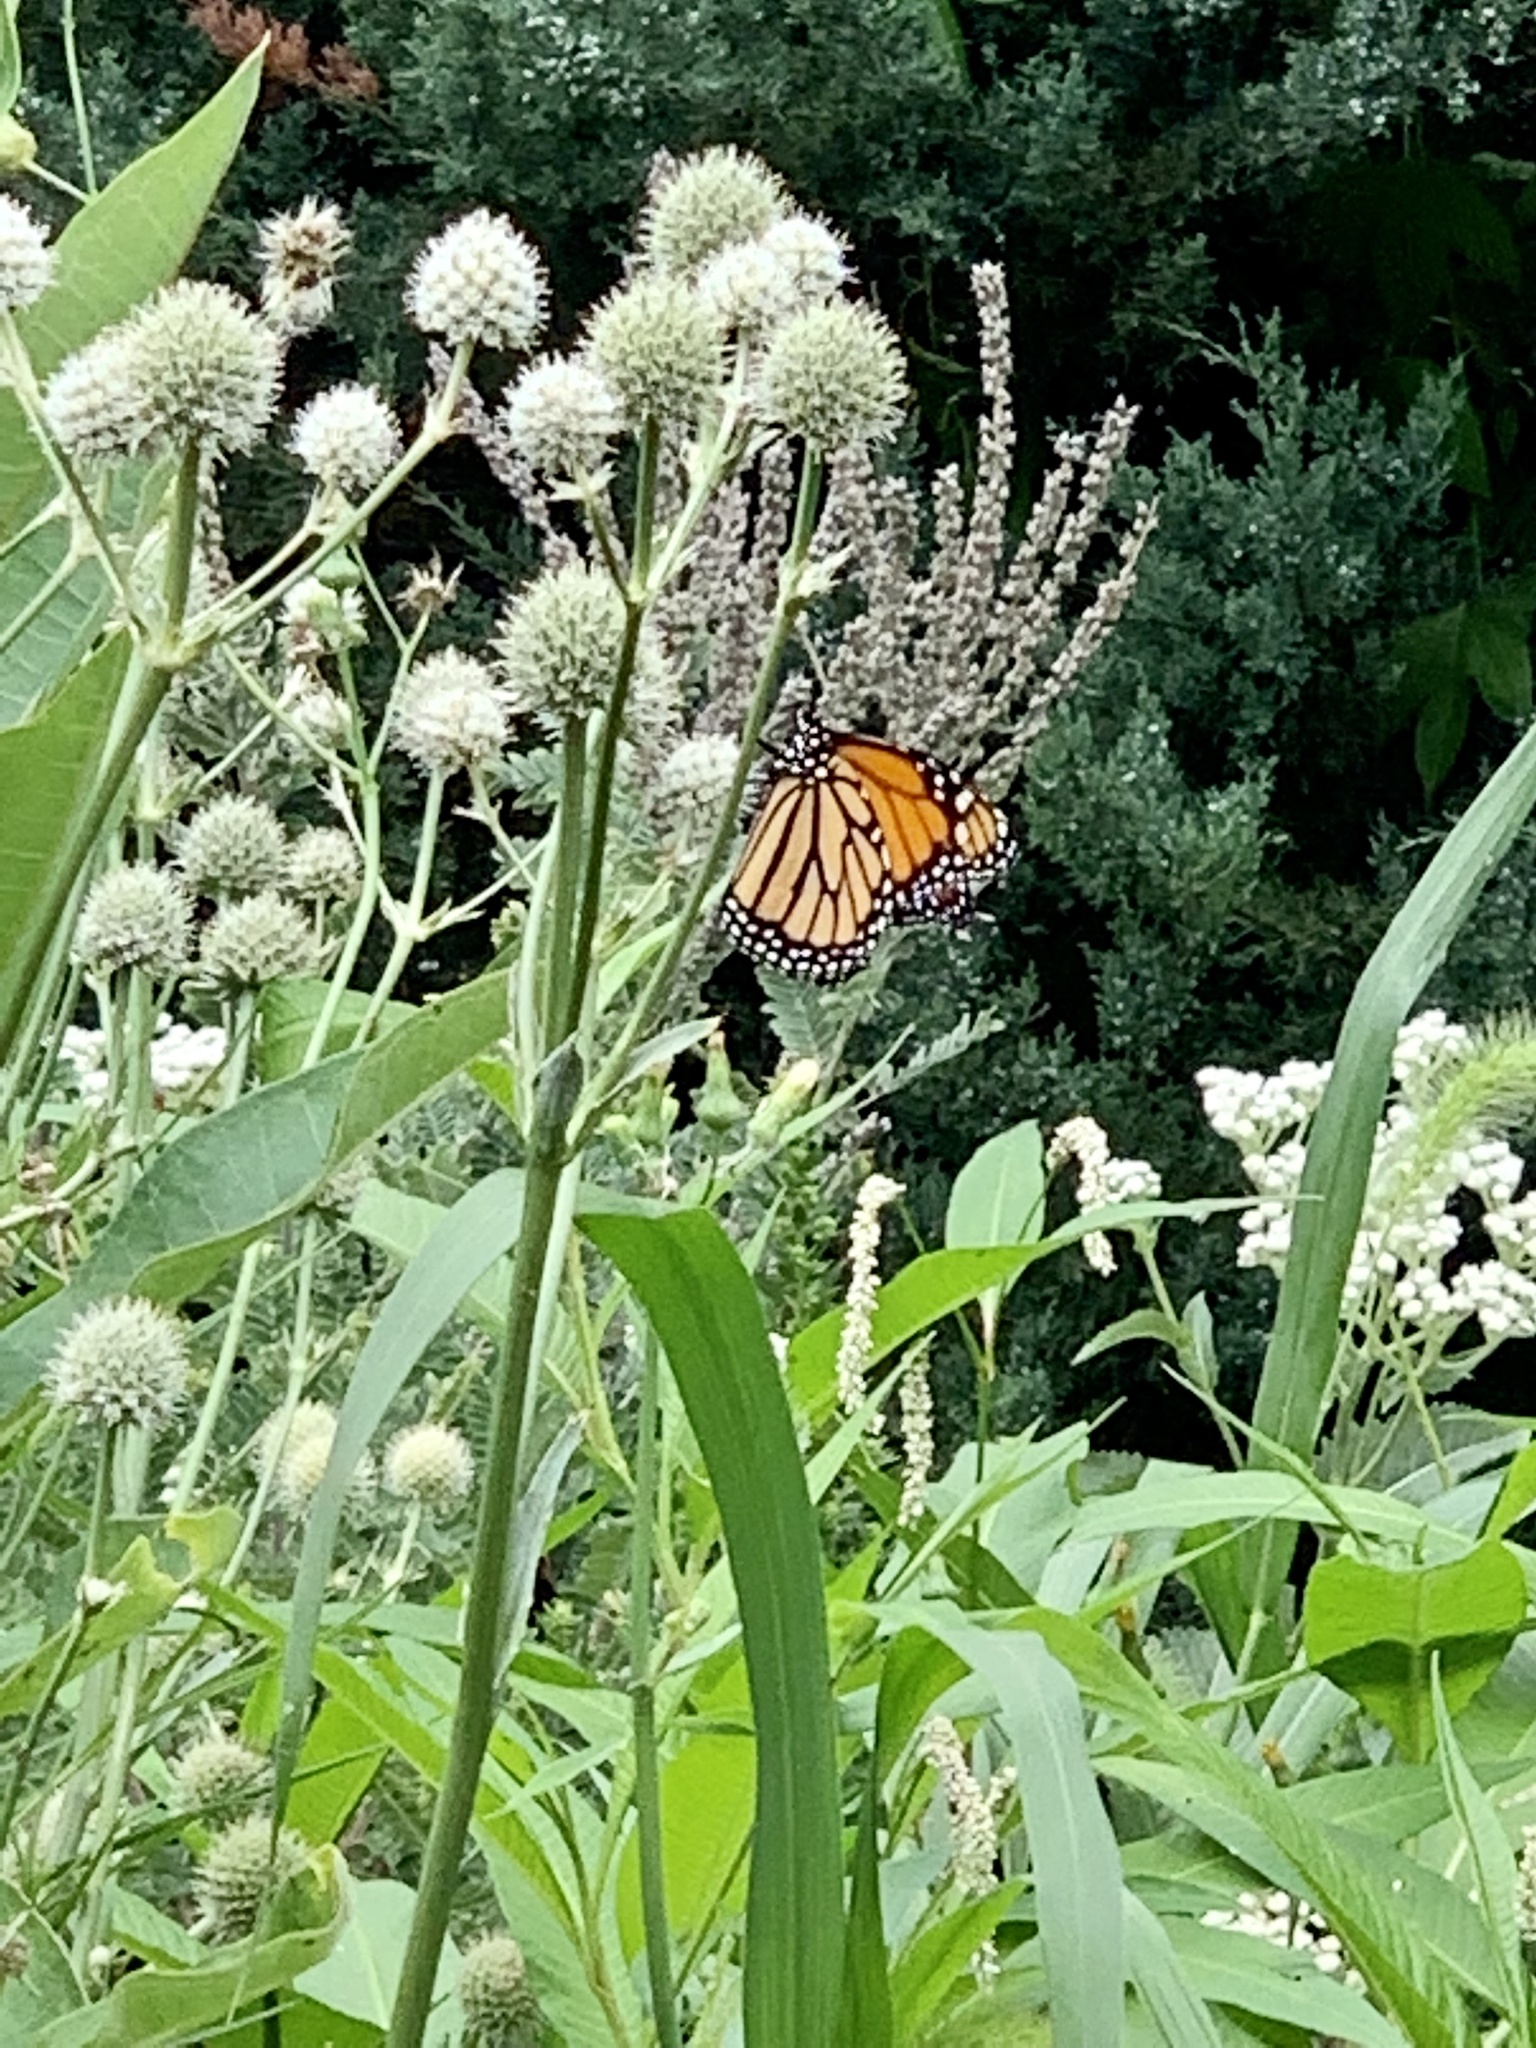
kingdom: Animalia
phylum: Arthropoda
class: Insecta
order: Lepidoptera
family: Nymphalidae
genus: Danaus
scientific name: Danaus plexippus
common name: Monarch
